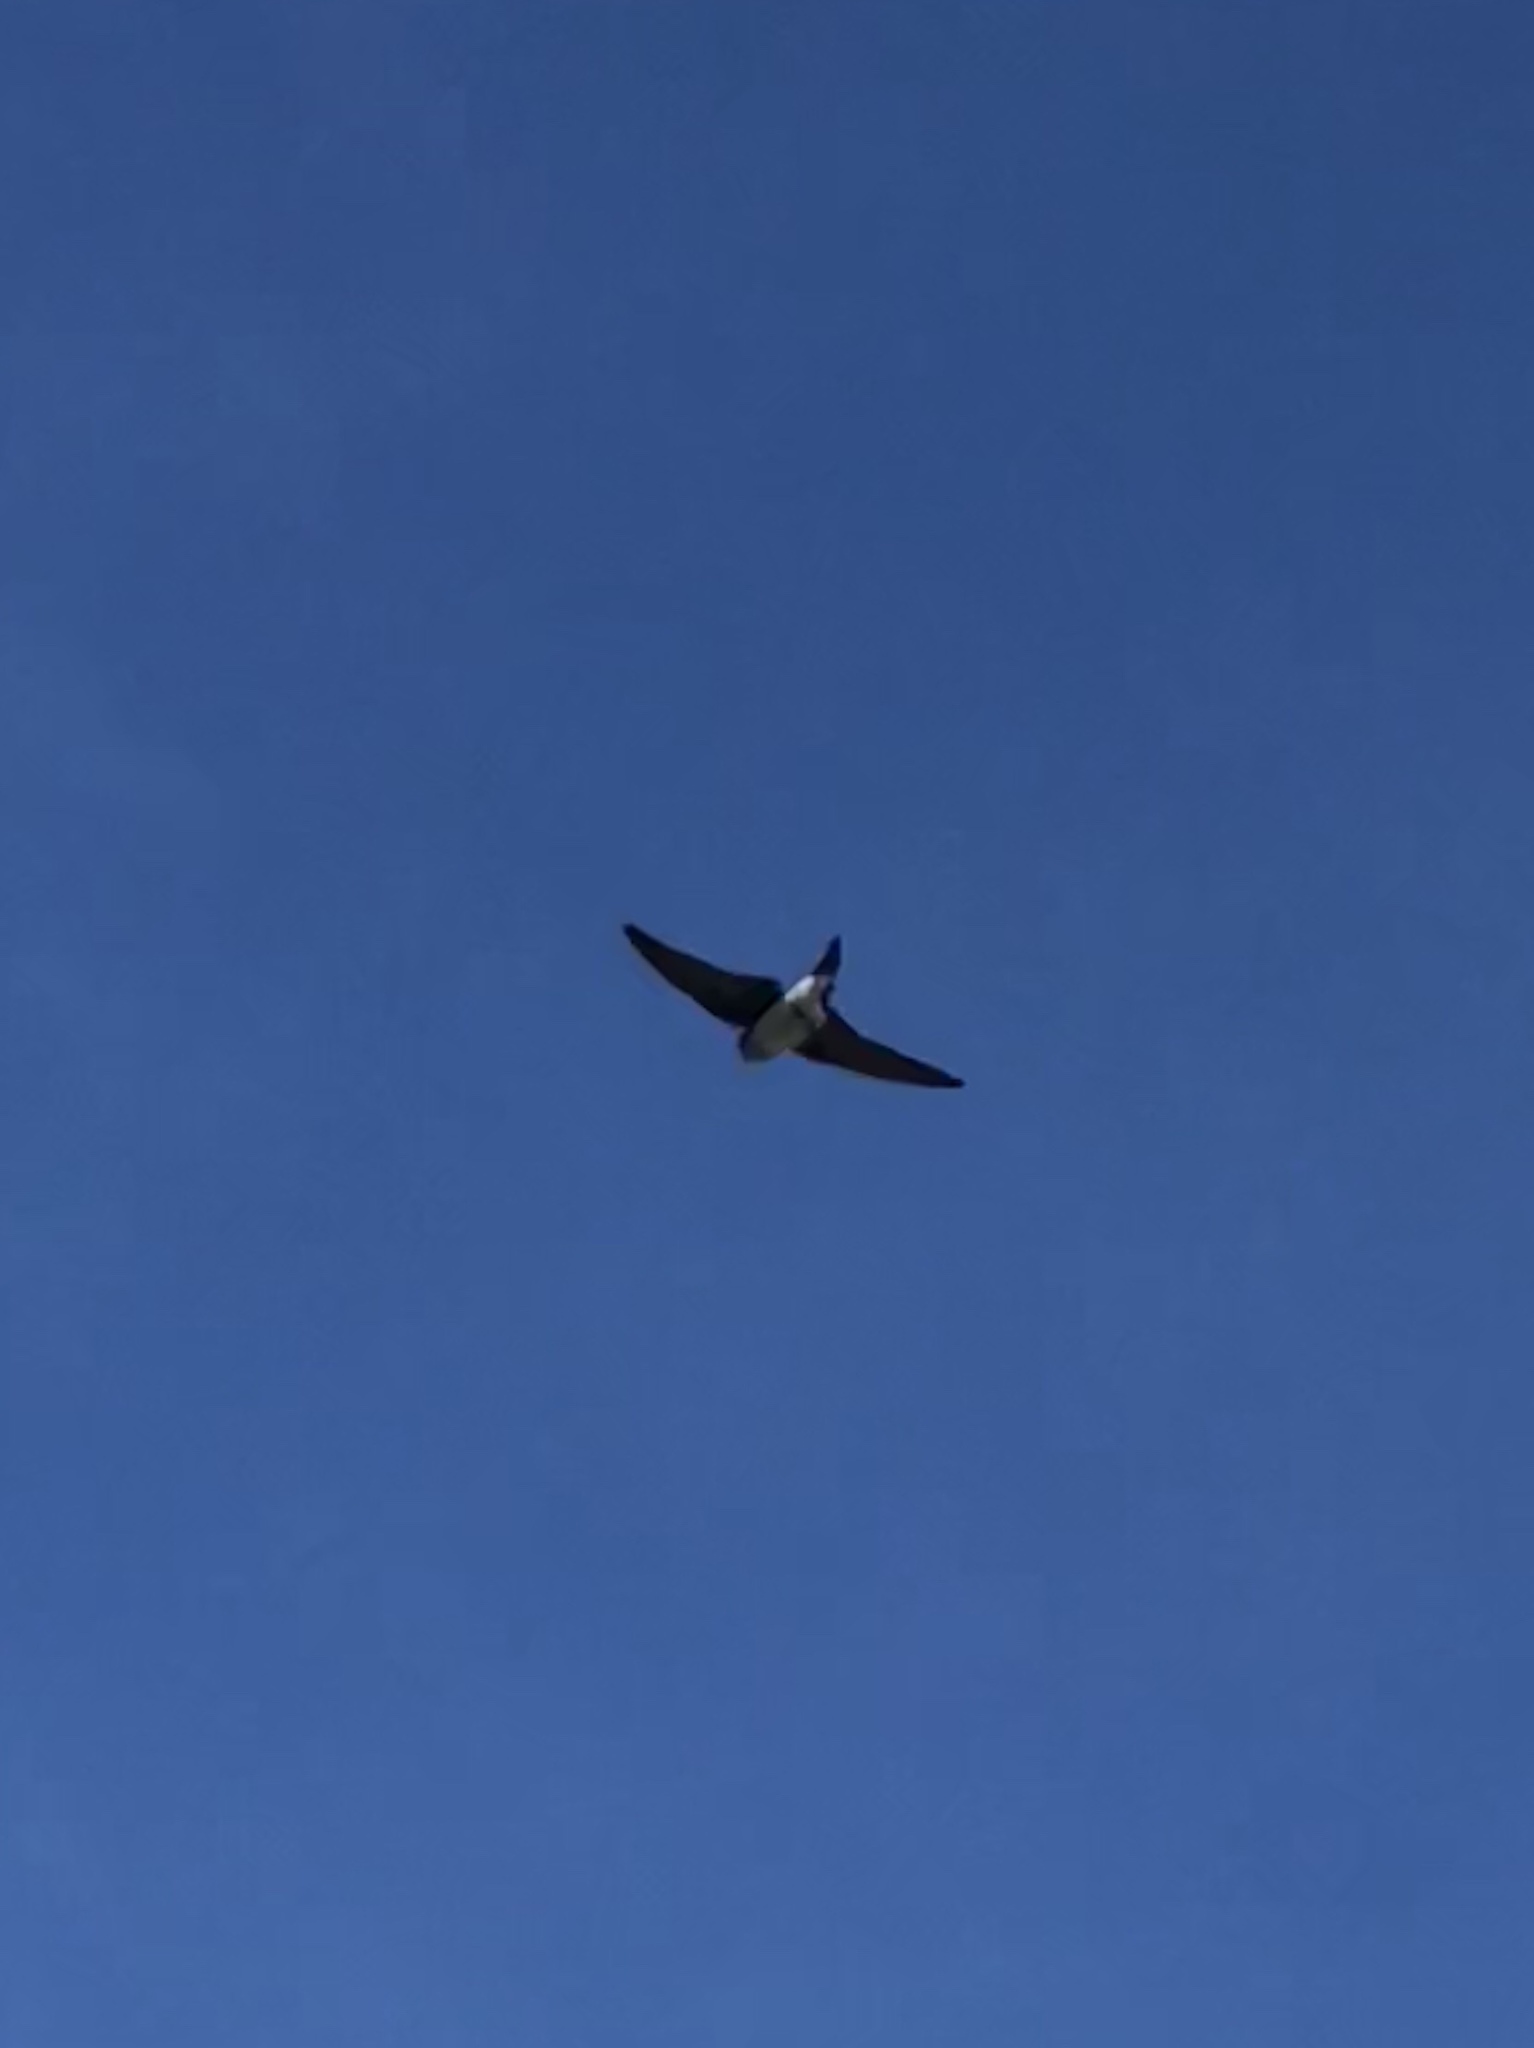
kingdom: Animalia
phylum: Chordata
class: Aves
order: Passeriformes
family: Hirundinidae
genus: Tachycineta
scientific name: Tachycineta bicolor
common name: Tree swallow
